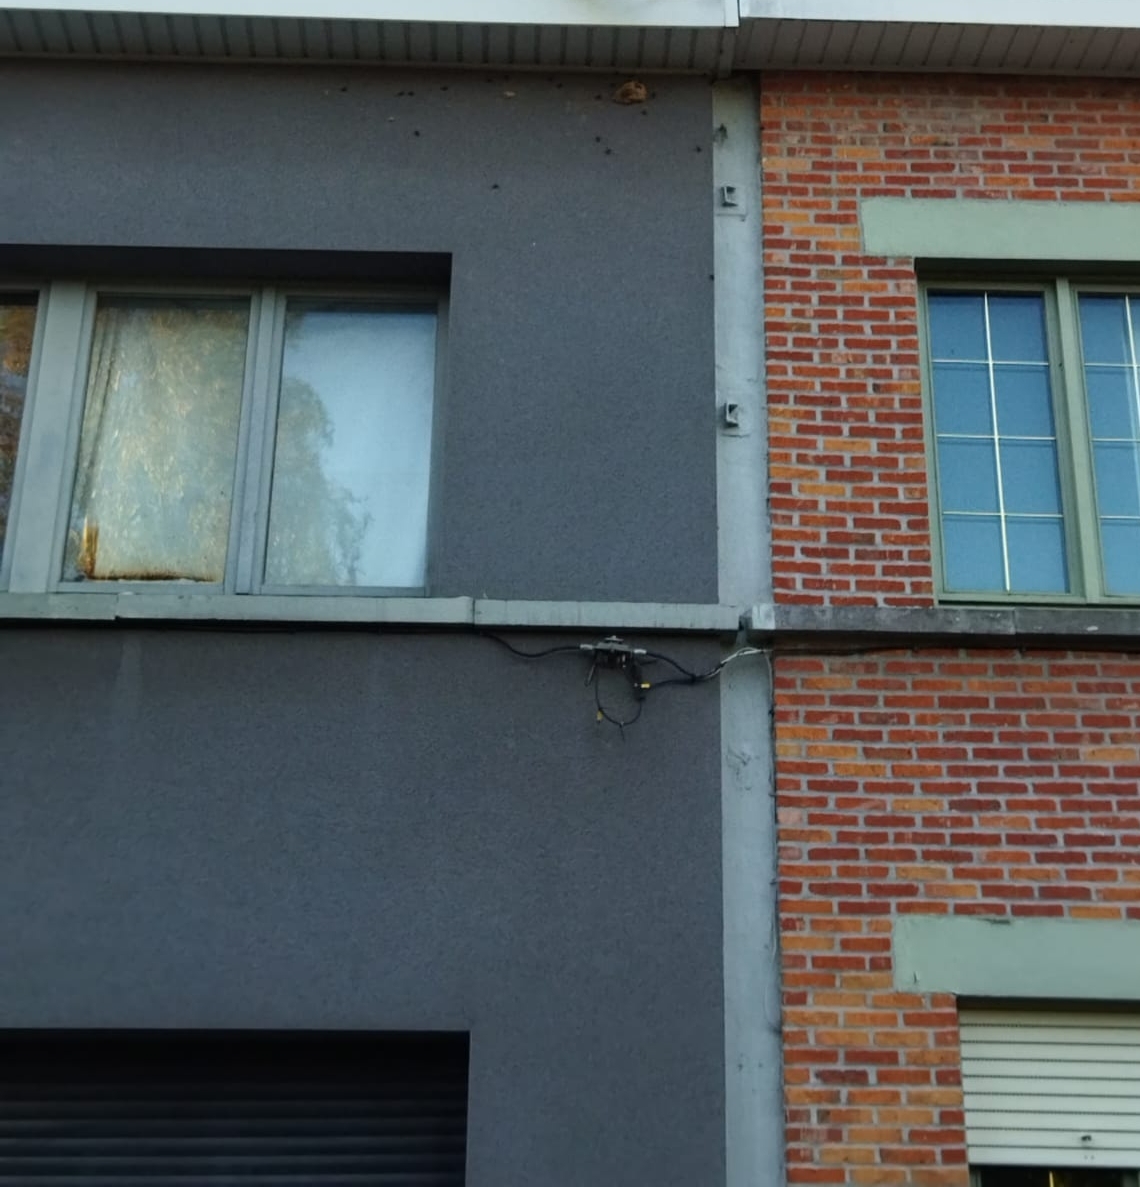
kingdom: Animalia
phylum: Arthropoda
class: Insecta
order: Hymenoptera
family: Vespidae
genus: Vespa
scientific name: Vespa velutina
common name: Asian hornet
